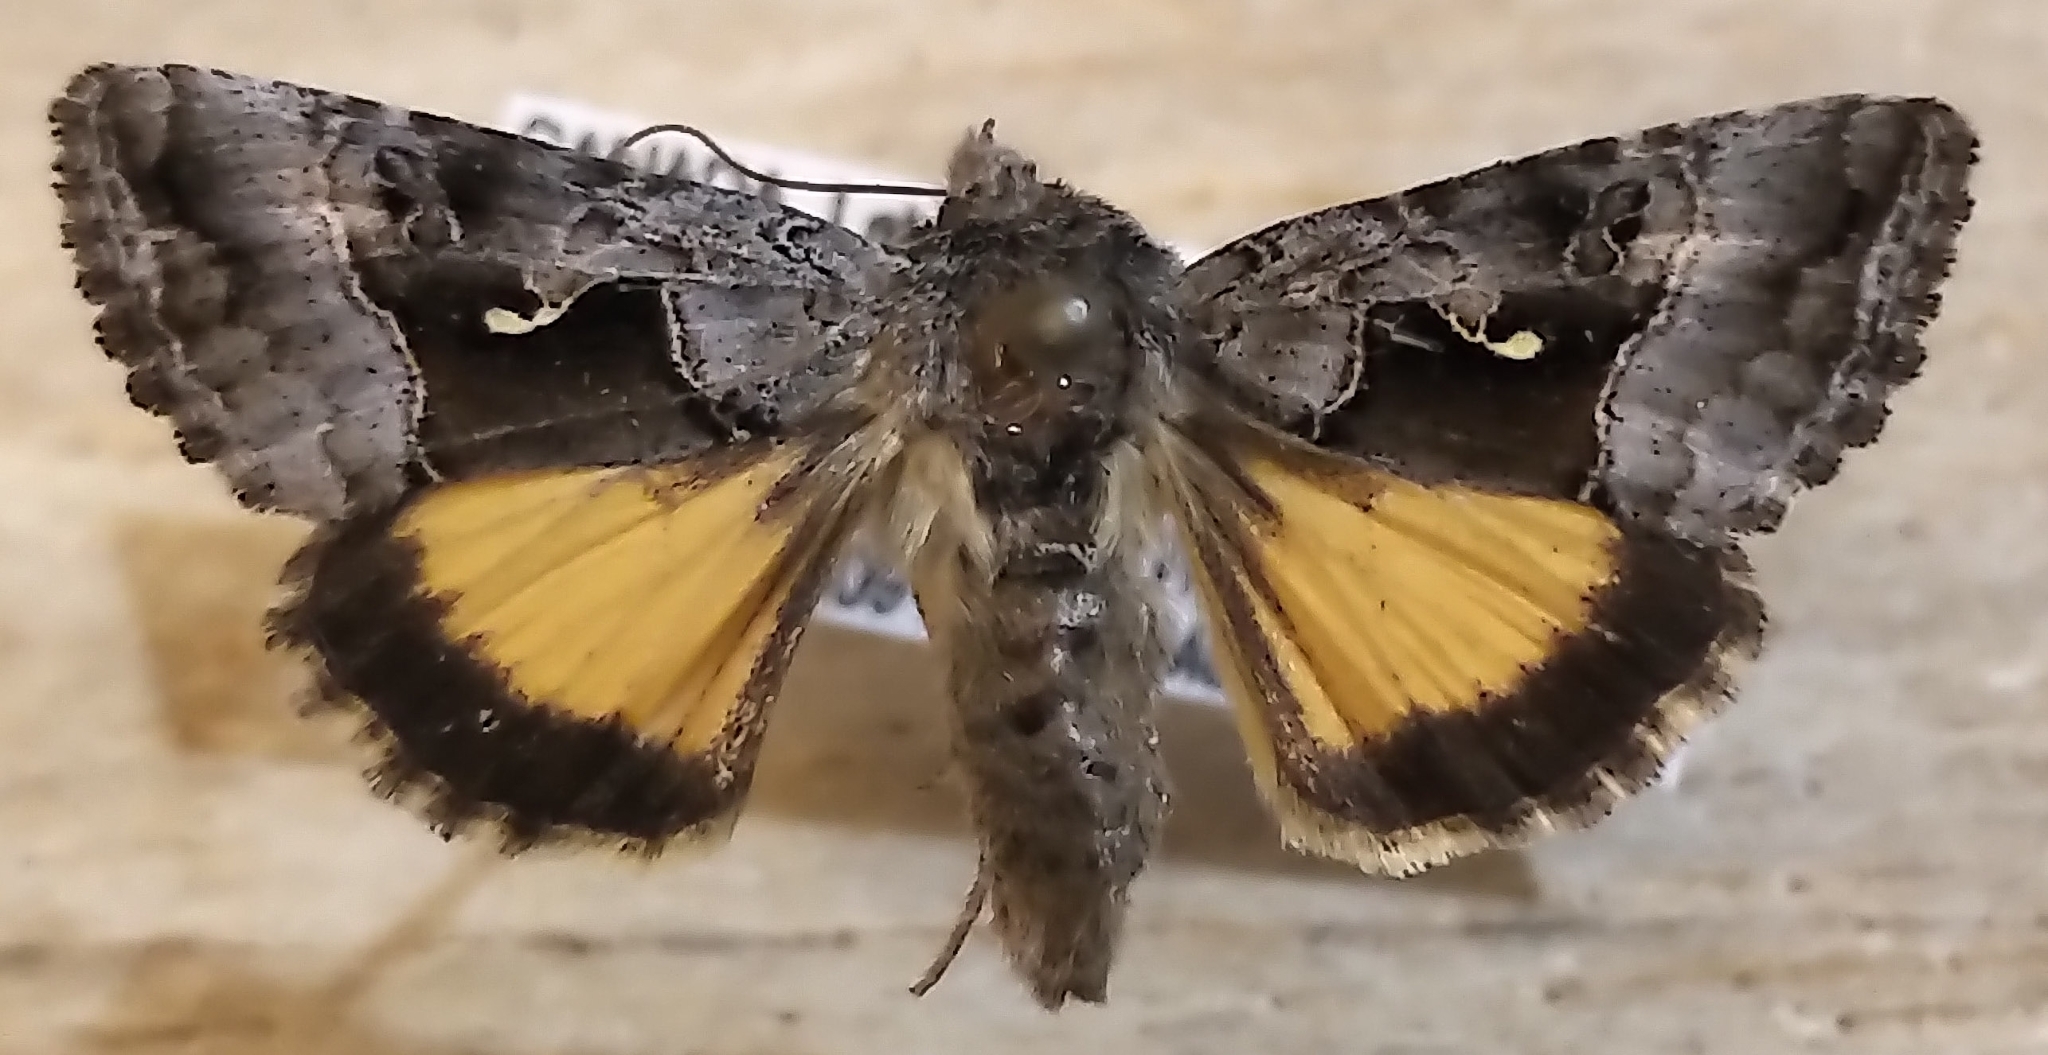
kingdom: Animalia
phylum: Arthropoda
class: Insecta
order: Lepidoptera
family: Noctuidae
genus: Syngrapha
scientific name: Syngrapha microgamma
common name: Small gamma looper moth
